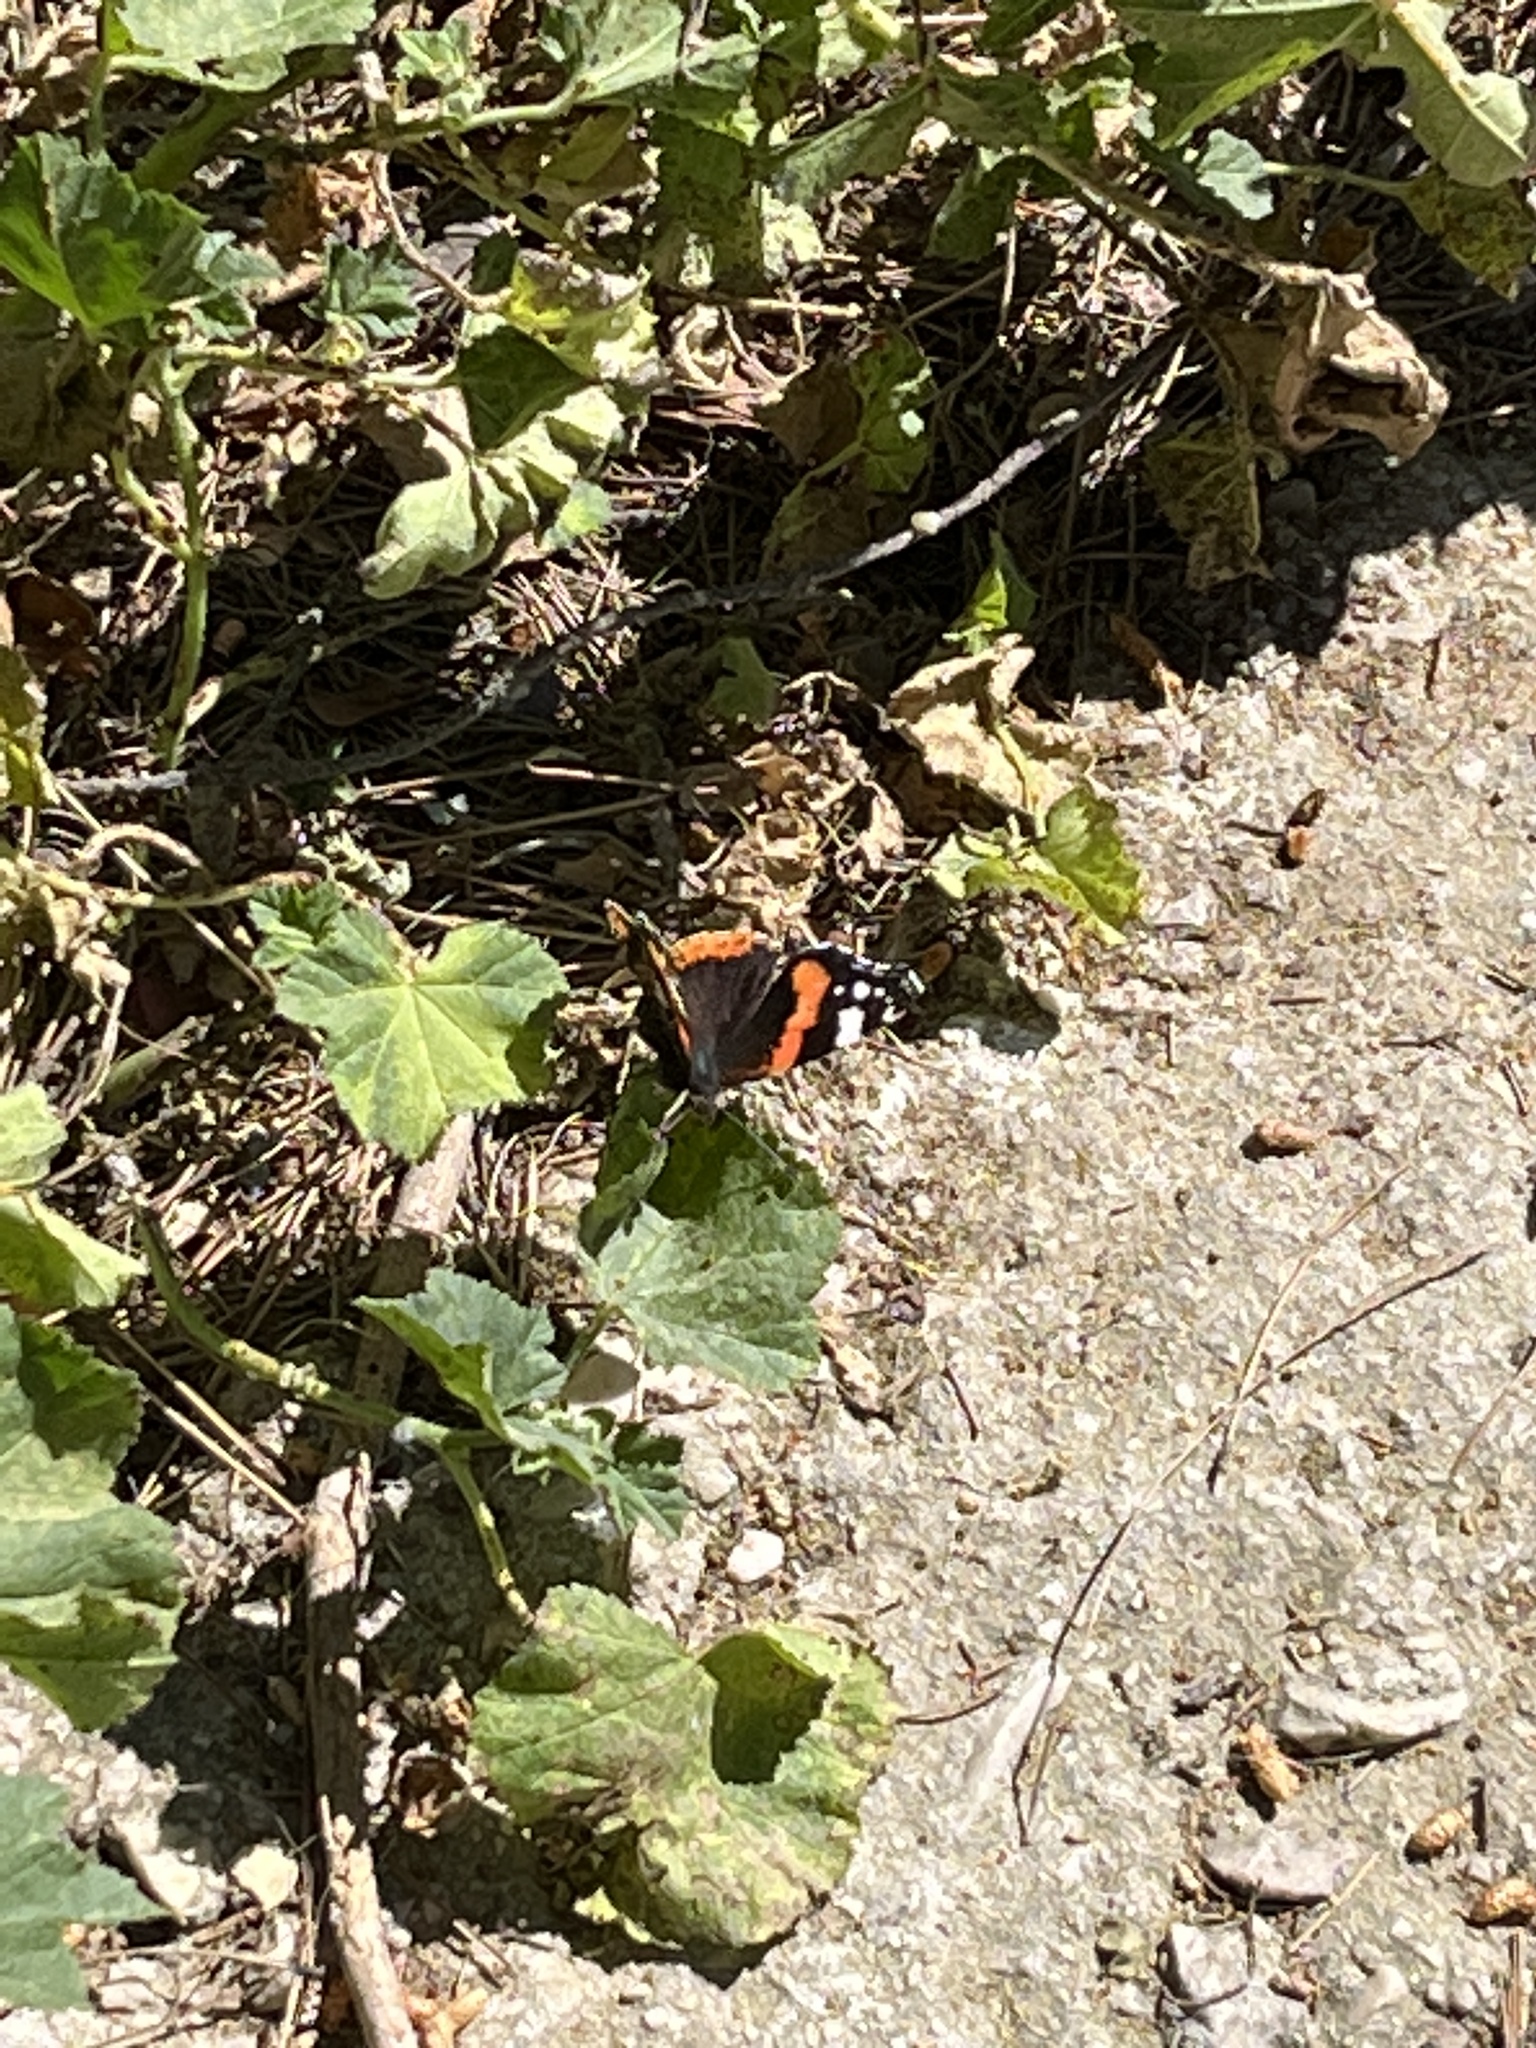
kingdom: Animalia
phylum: Arthropoda
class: Insecta
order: Lepidoptera
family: Nymphalidae
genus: Vanessa
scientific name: Vanessa atalanta
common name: Red admiral
